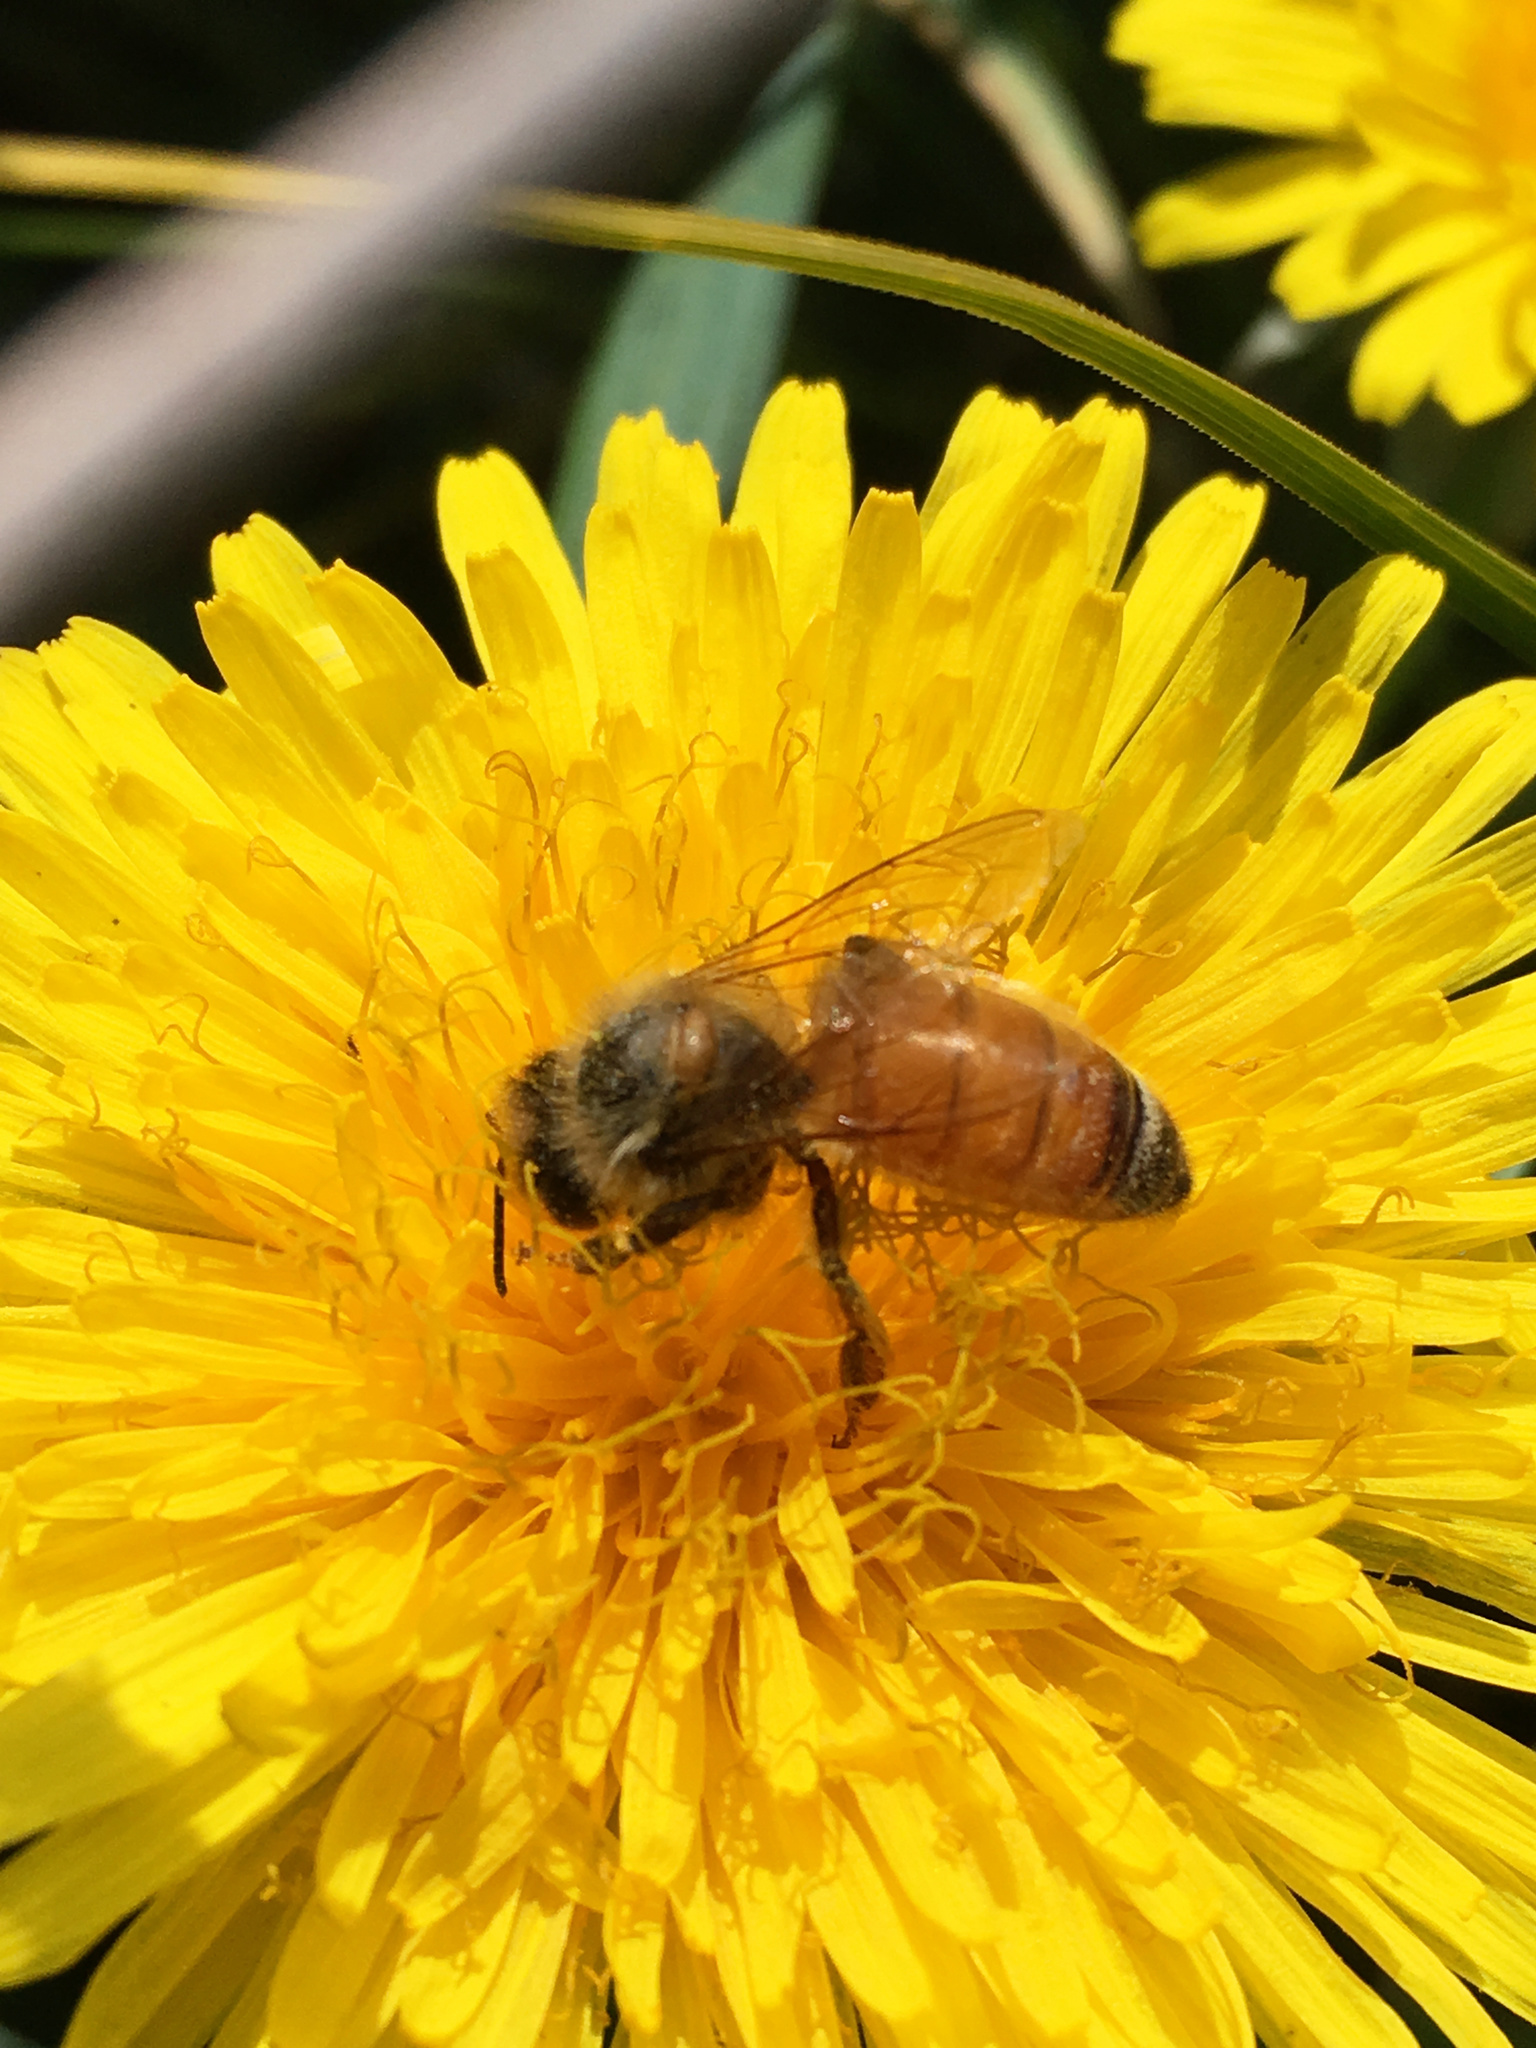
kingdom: Animalia
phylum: Arthropoda
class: Insecta
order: Hymenoptera
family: Apidae
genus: Apis
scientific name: Apis mellifera
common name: Honey bee
